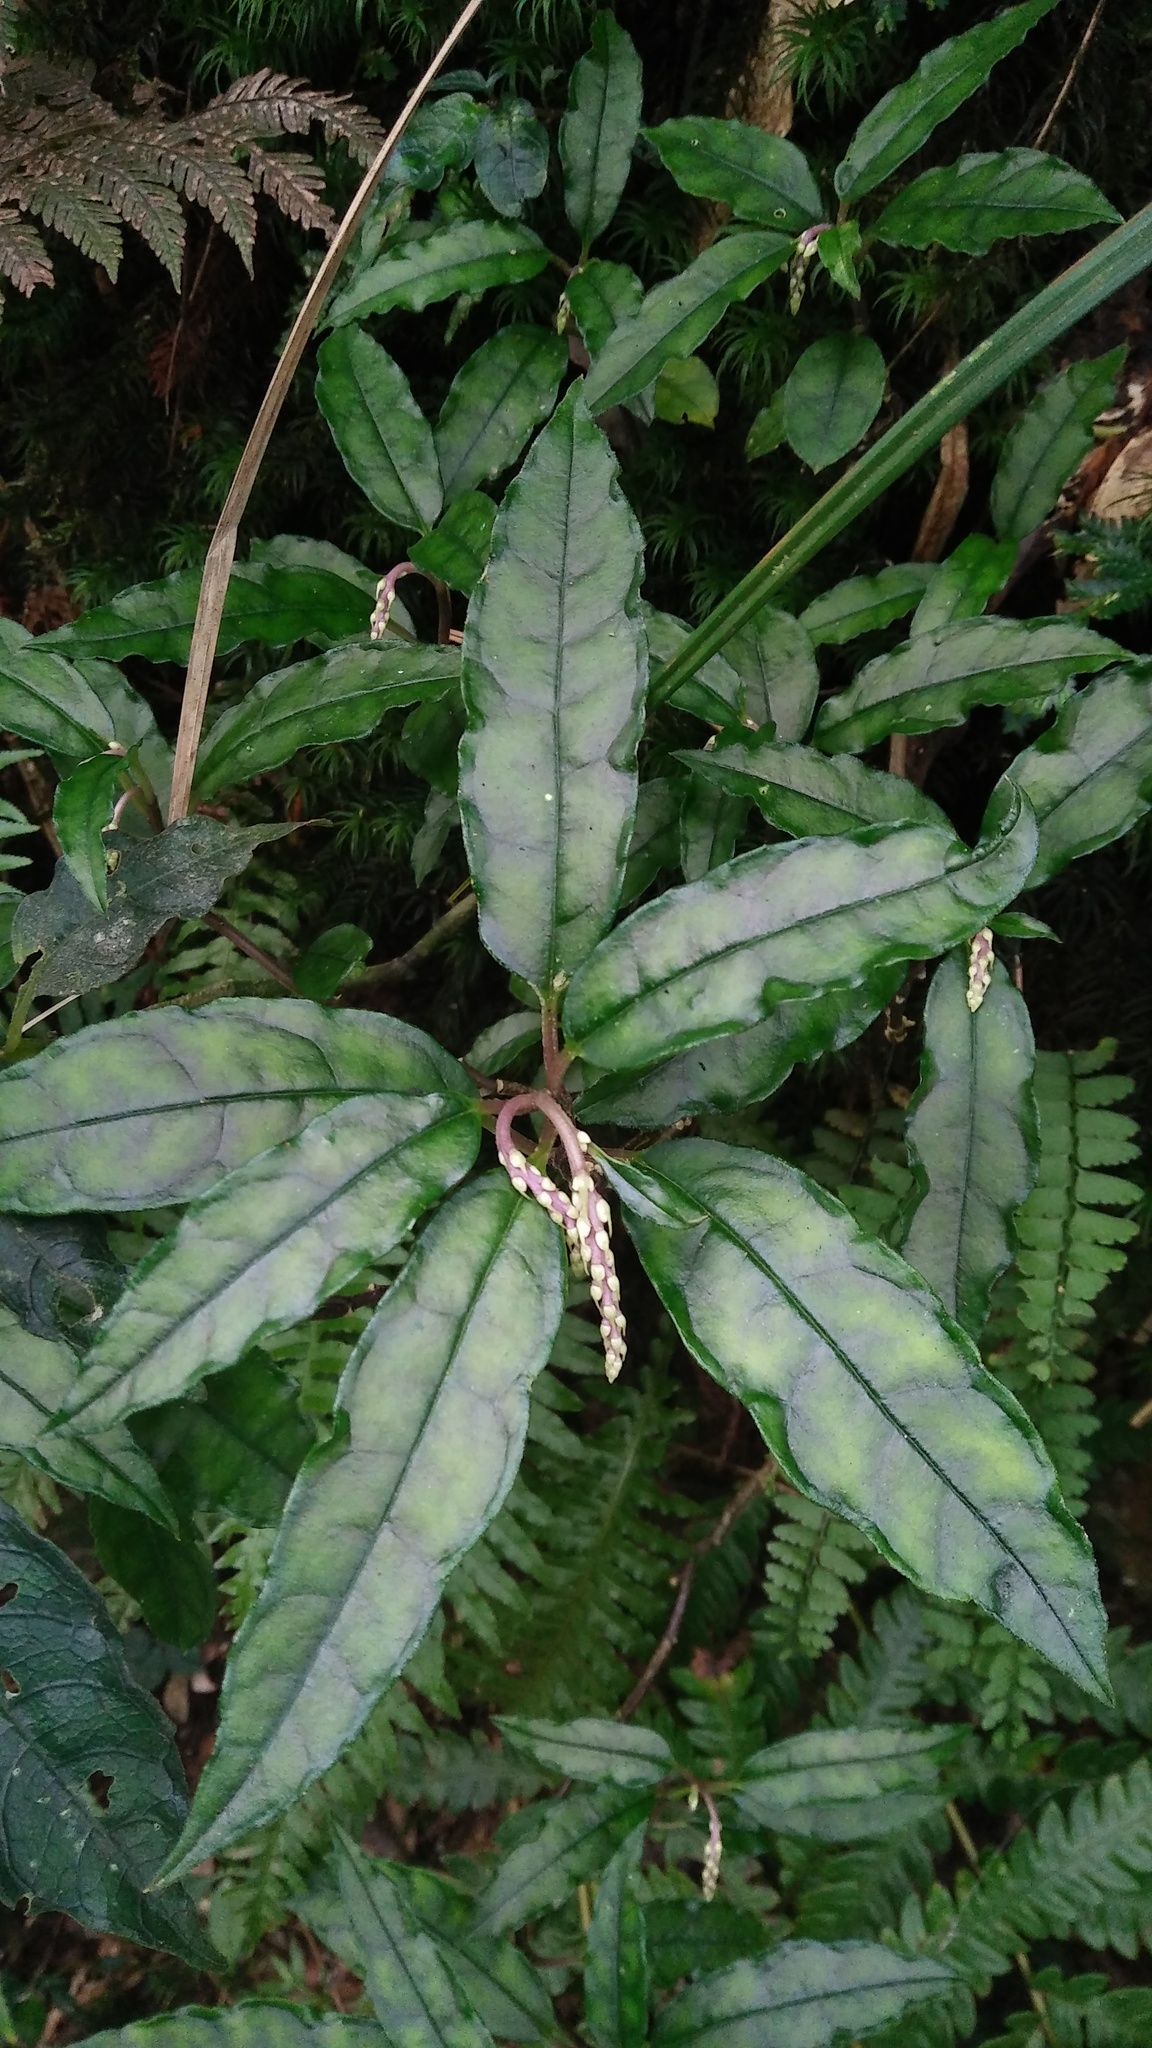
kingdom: Plantae
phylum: Tracheophyta
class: Magnoliopsida
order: Fabales
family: Polygalaceae
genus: Polygala
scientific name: Polygala arcuata
